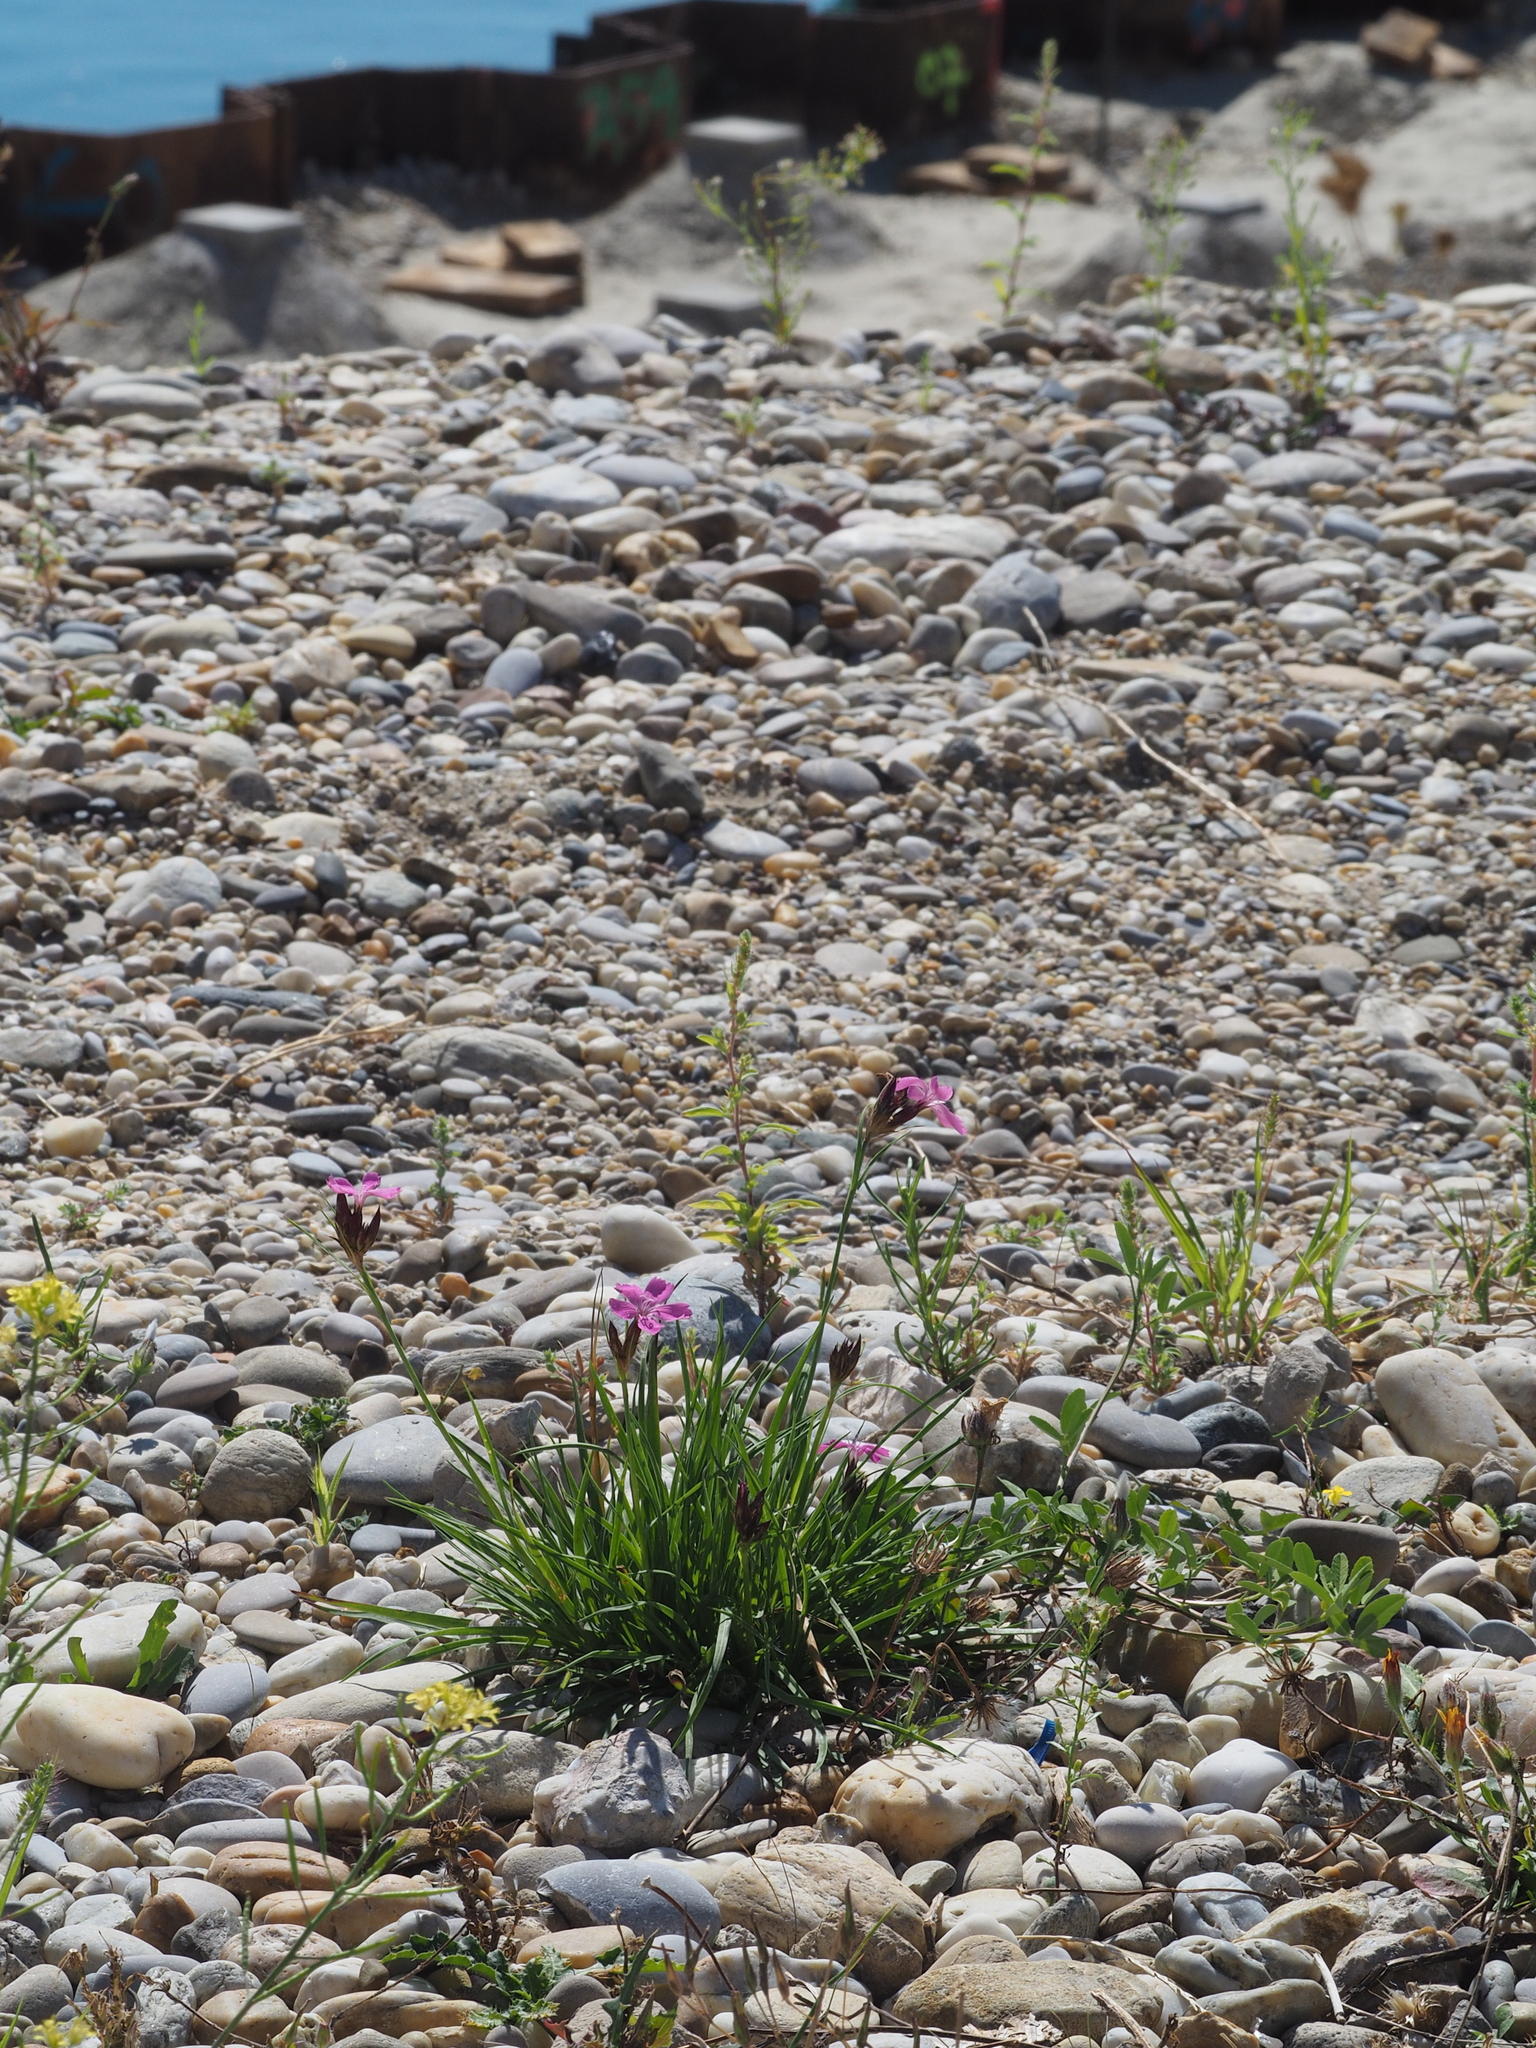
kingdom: Plantae
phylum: Tracheophyta
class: Magnoliopsida
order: Caryophyllales
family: Caryophyllaceae
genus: Dianthus
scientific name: Dianthus carthusianorum
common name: Carthusian pink
